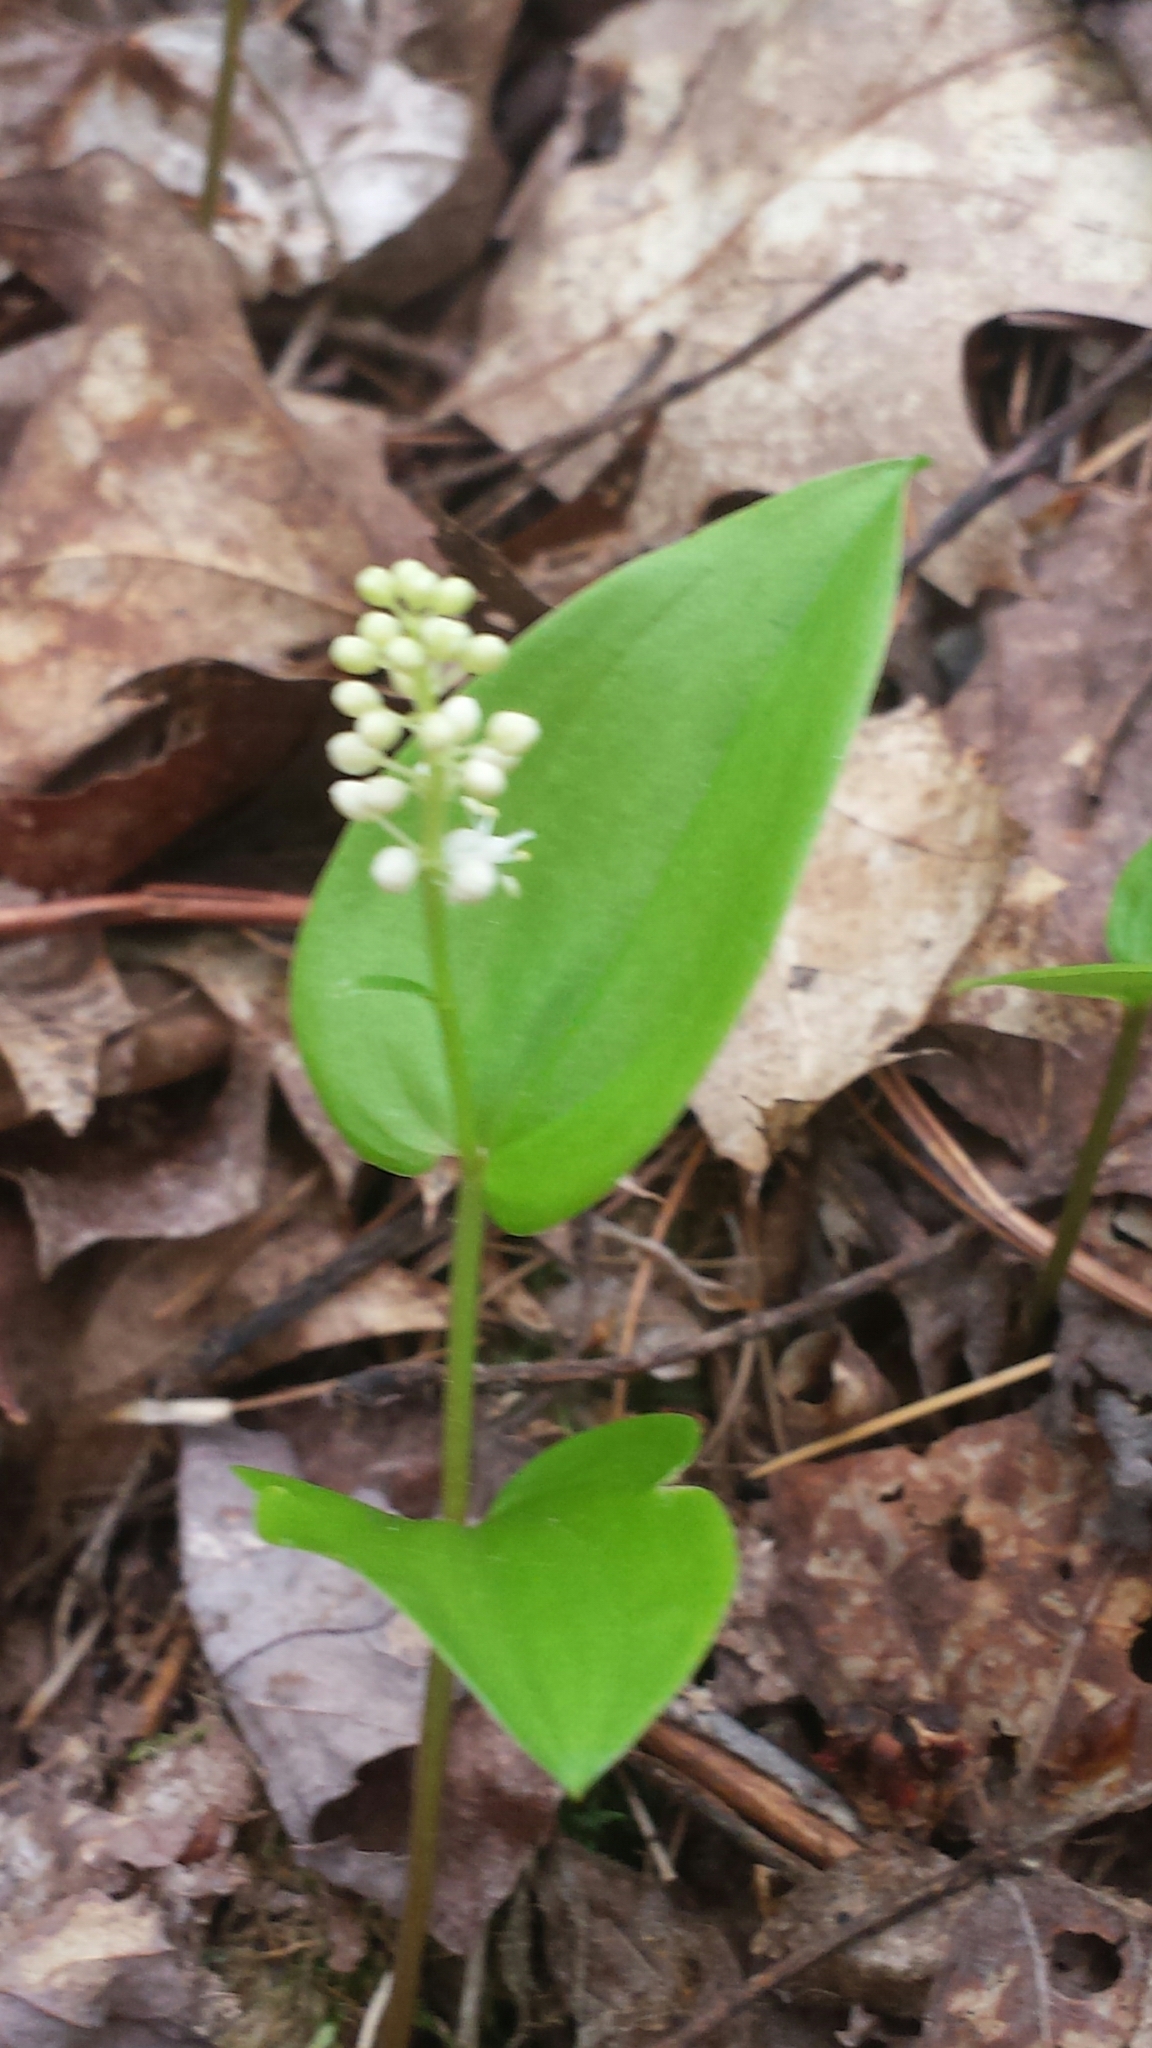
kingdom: Plantae
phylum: Tracheophyta
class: Liliopsida
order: Asparagales
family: Asparagaceae
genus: Maianthemum
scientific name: Maianthemum canadense
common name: False lily-of-the-valley
